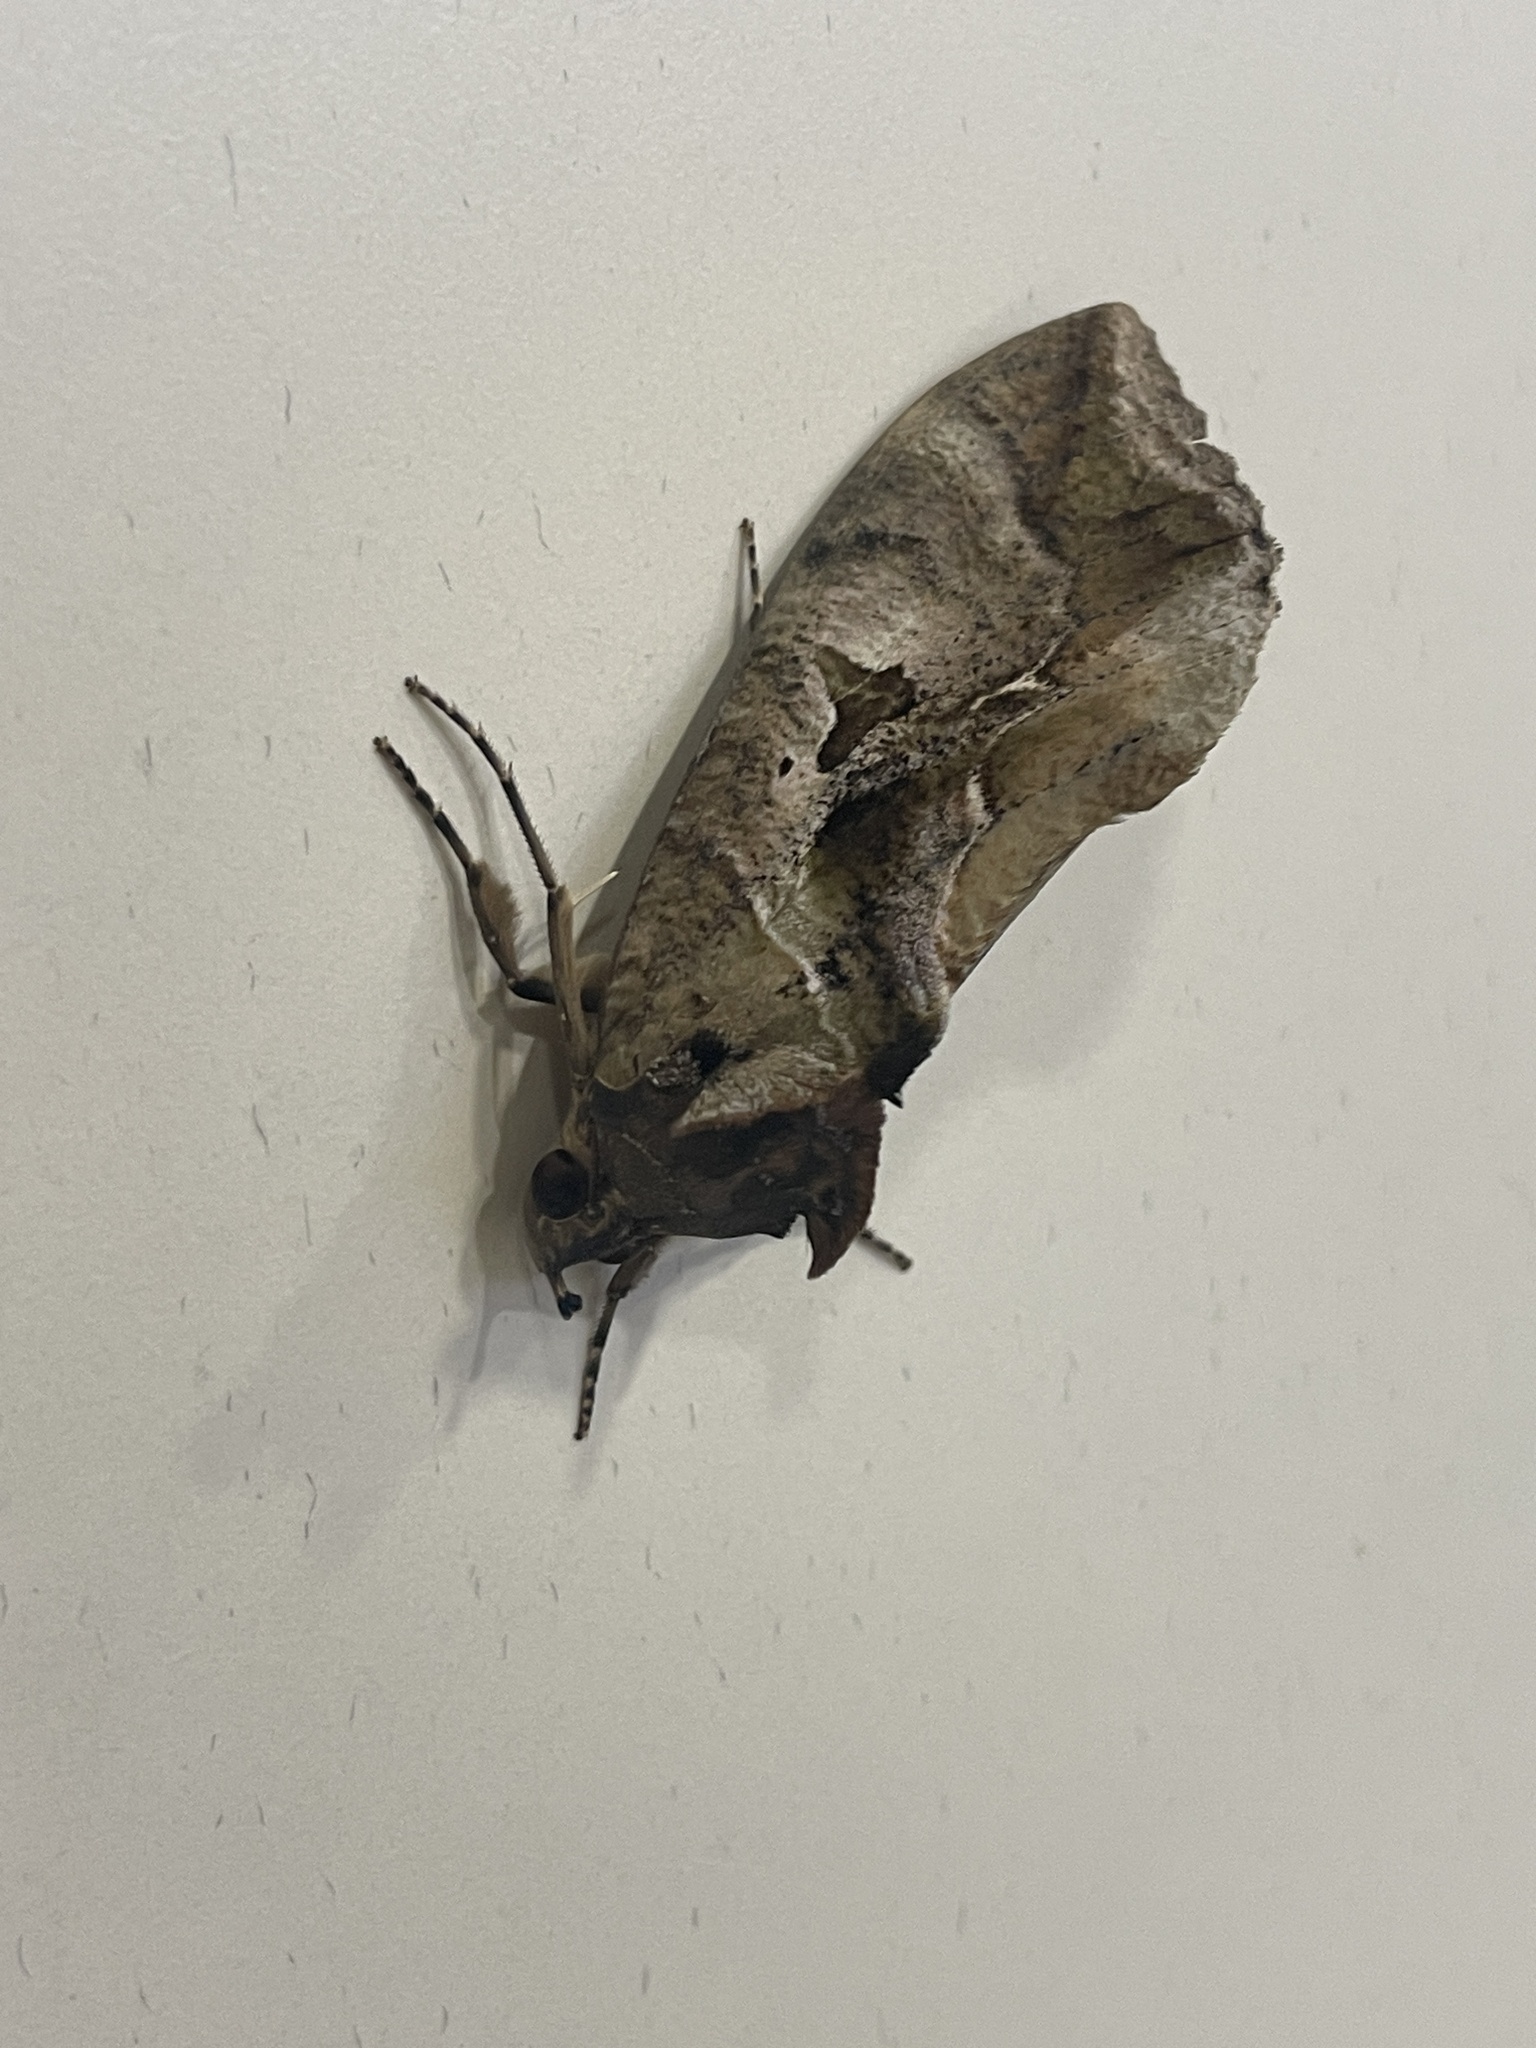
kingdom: Animalia
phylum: Arthropoda
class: Insecta
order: Lepidoptera
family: Erebidae
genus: Eudocima
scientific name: Eudocima phalonia
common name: Wasp
